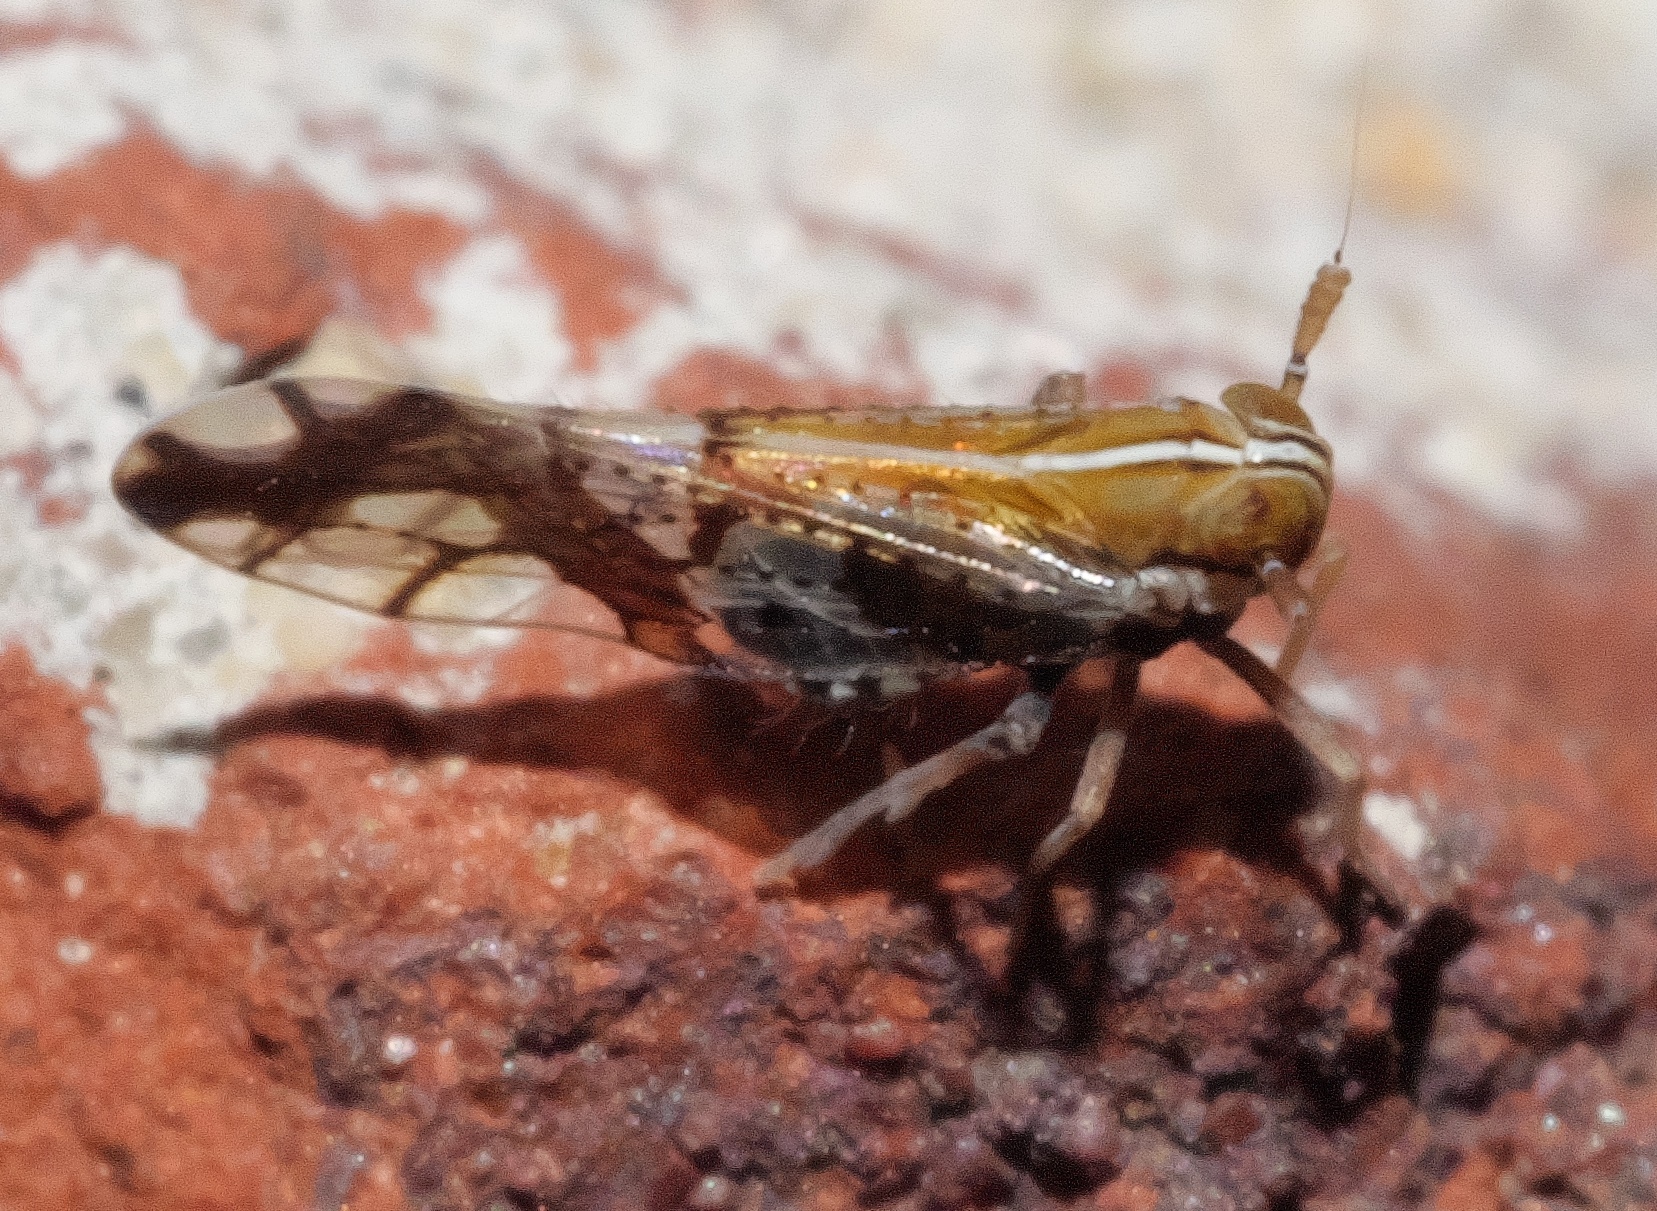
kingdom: Animalia
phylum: Arthropoda
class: Insecta
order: Hemiptera
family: Delphacidae
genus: Liburniella
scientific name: Liburniella ornata
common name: Ornate planthopper
